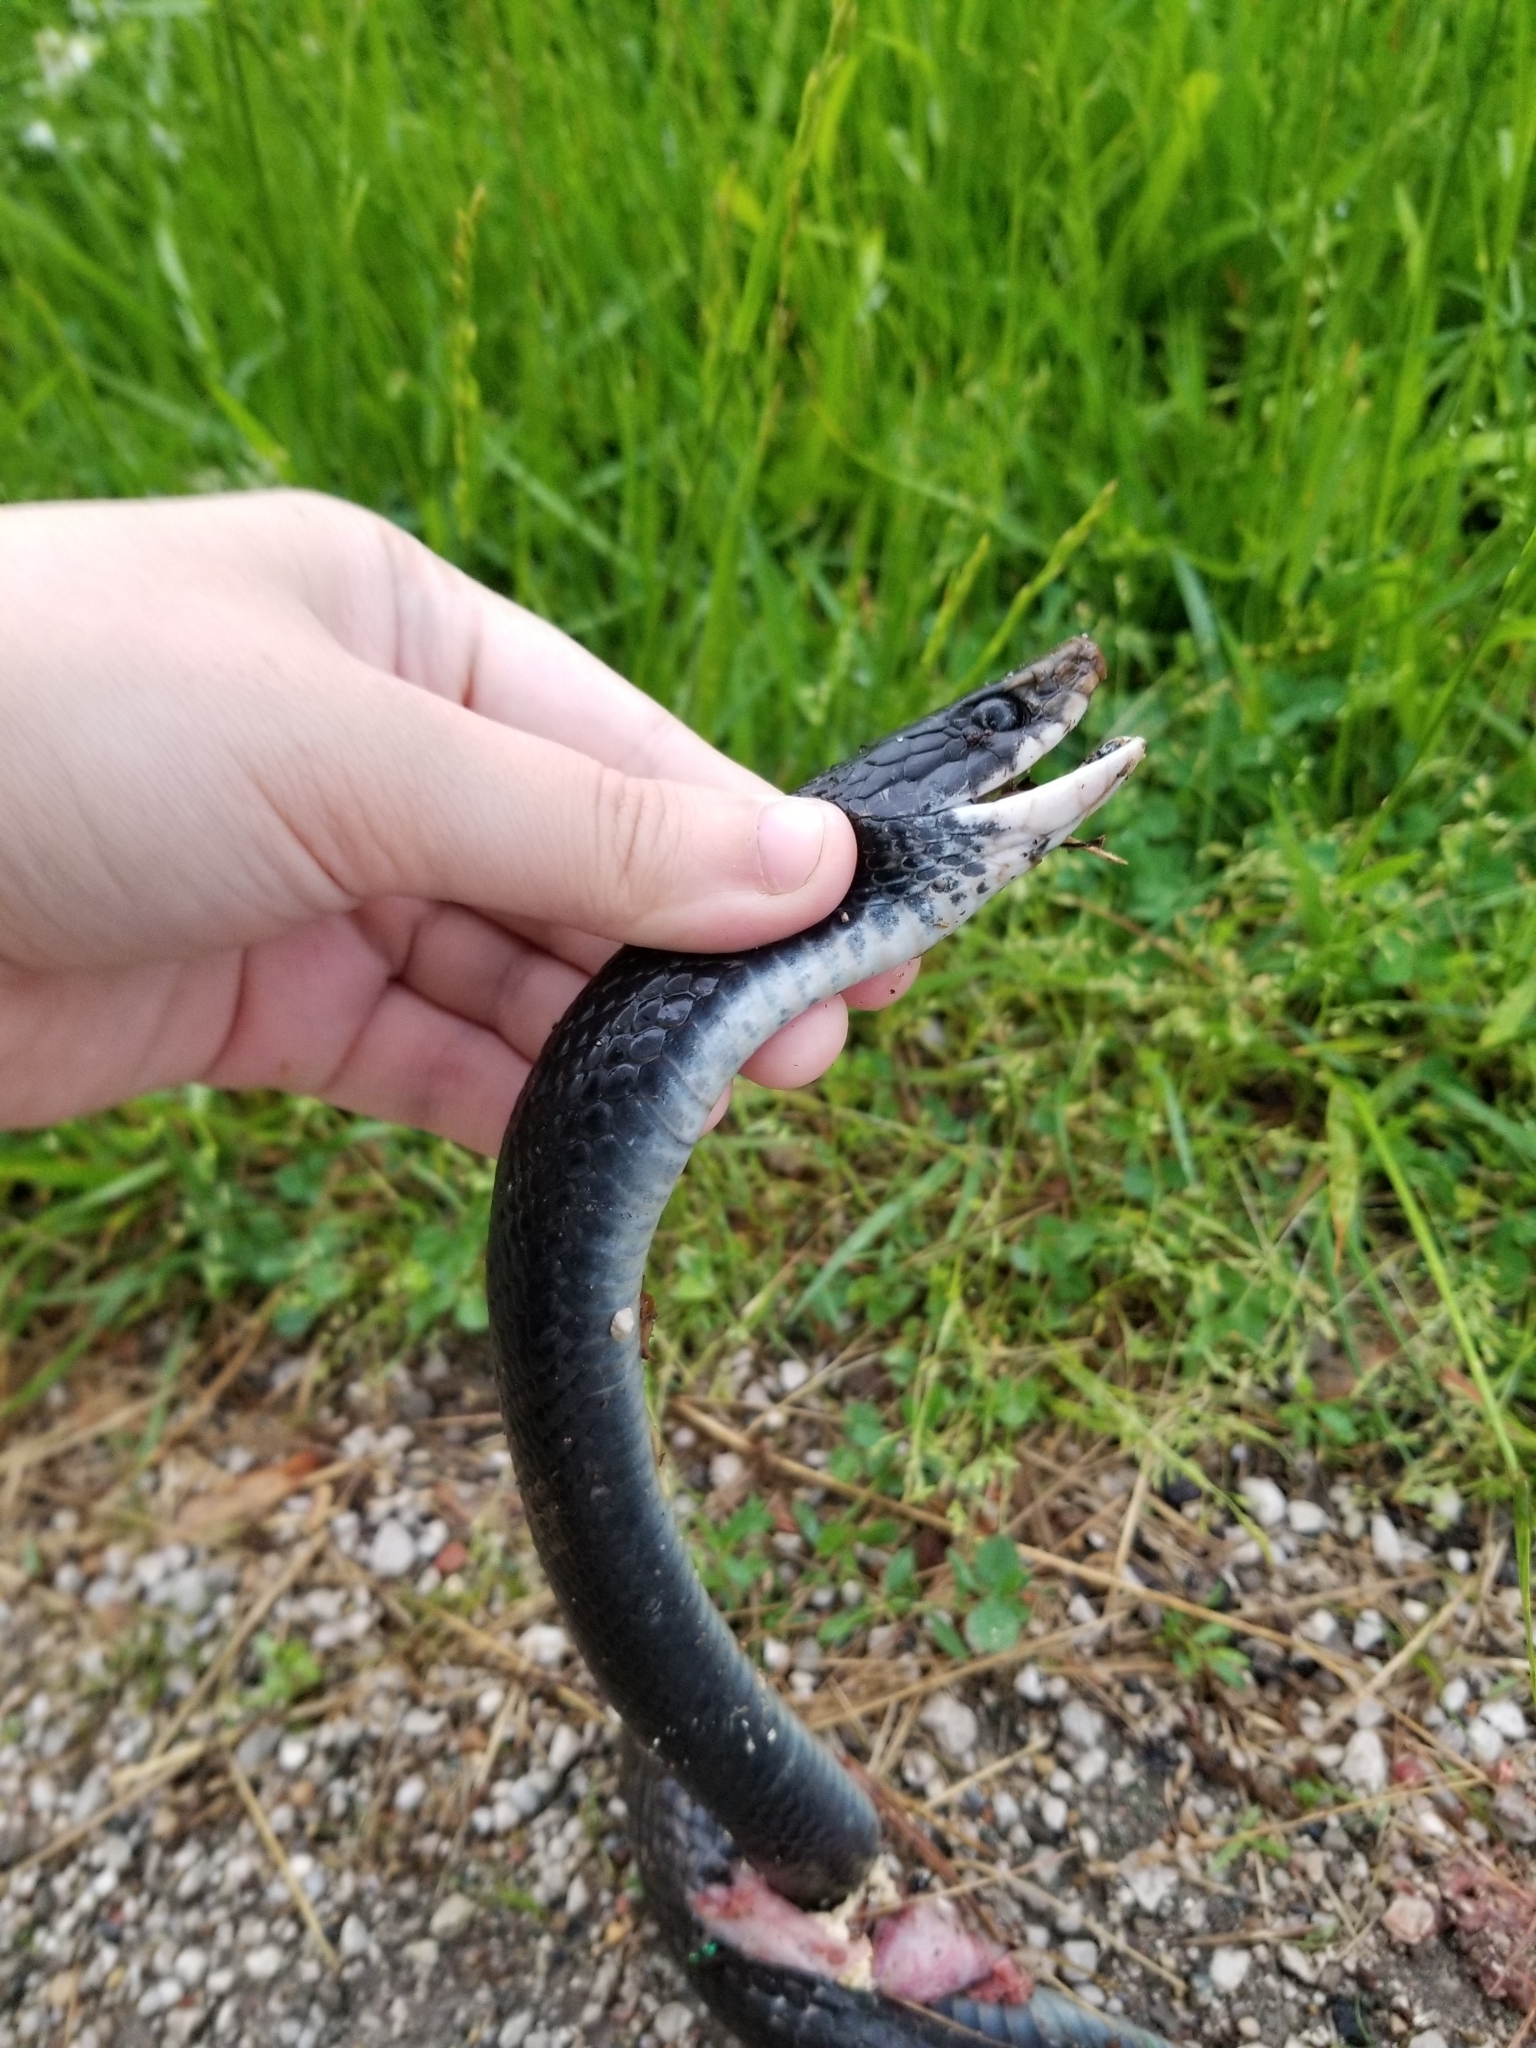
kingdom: Animalia
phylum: Chordata
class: Squamata
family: Colubridae
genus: Coluber
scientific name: Coluber constrictor
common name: Eastern racer
